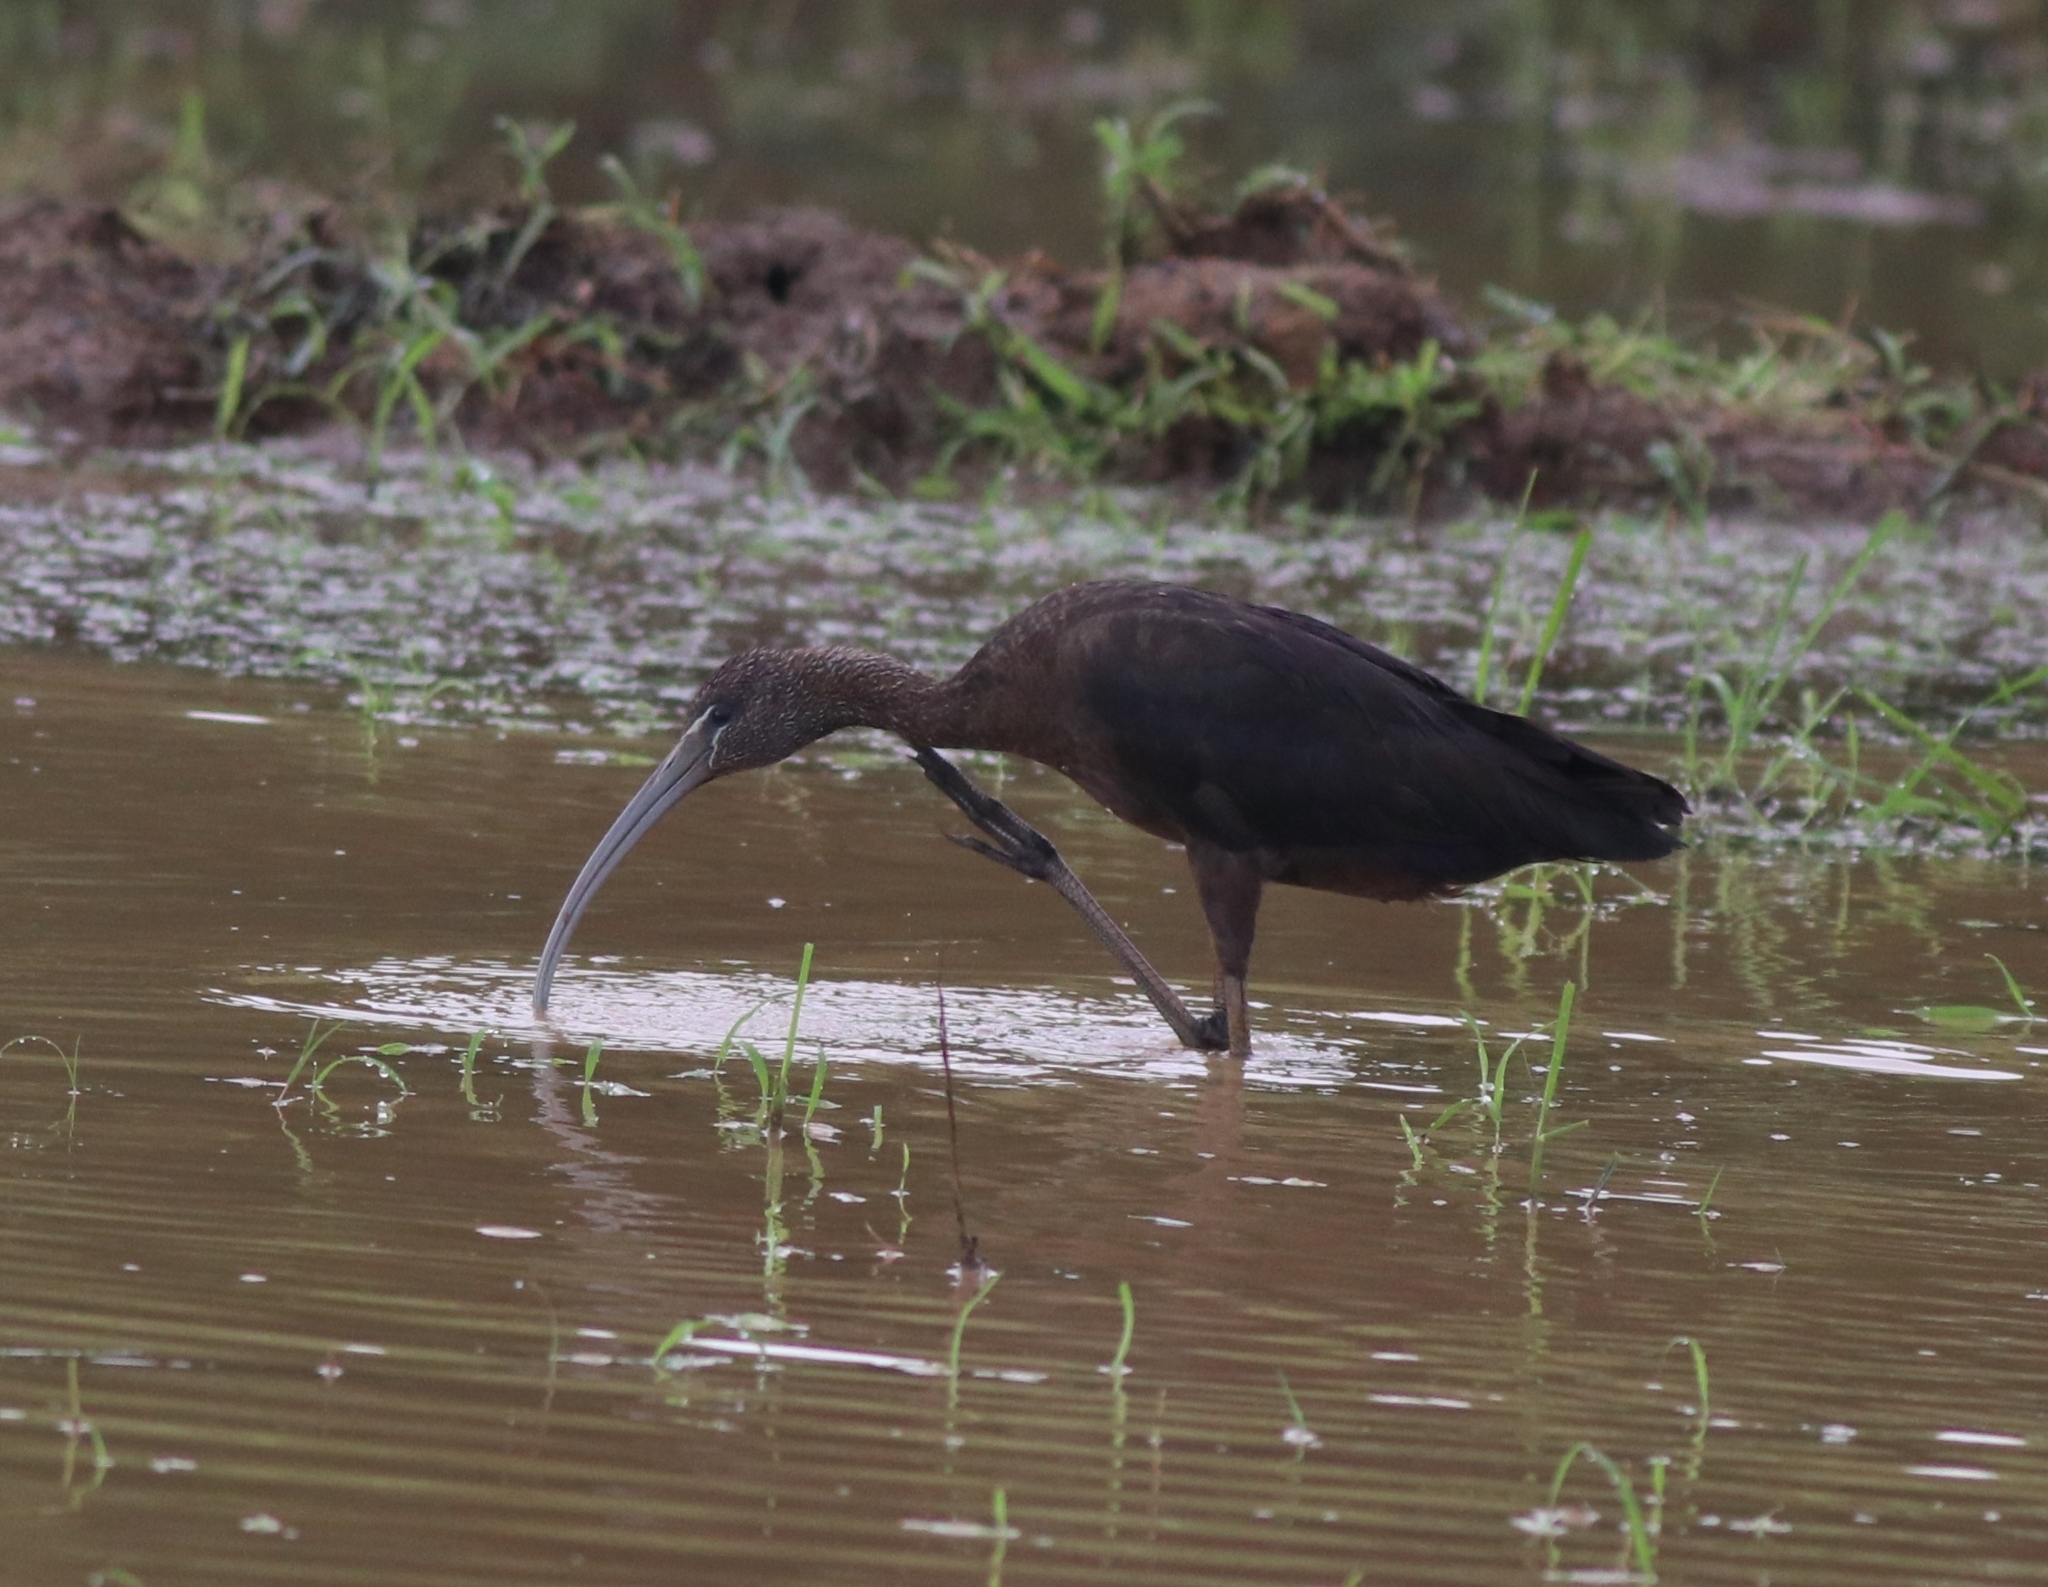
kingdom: Animalia
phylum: Chordata
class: Aves
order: Pelecaniformes
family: Threskiornithidae
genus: Plegadis
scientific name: Plegadis falcinellus
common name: Glossy ibis
